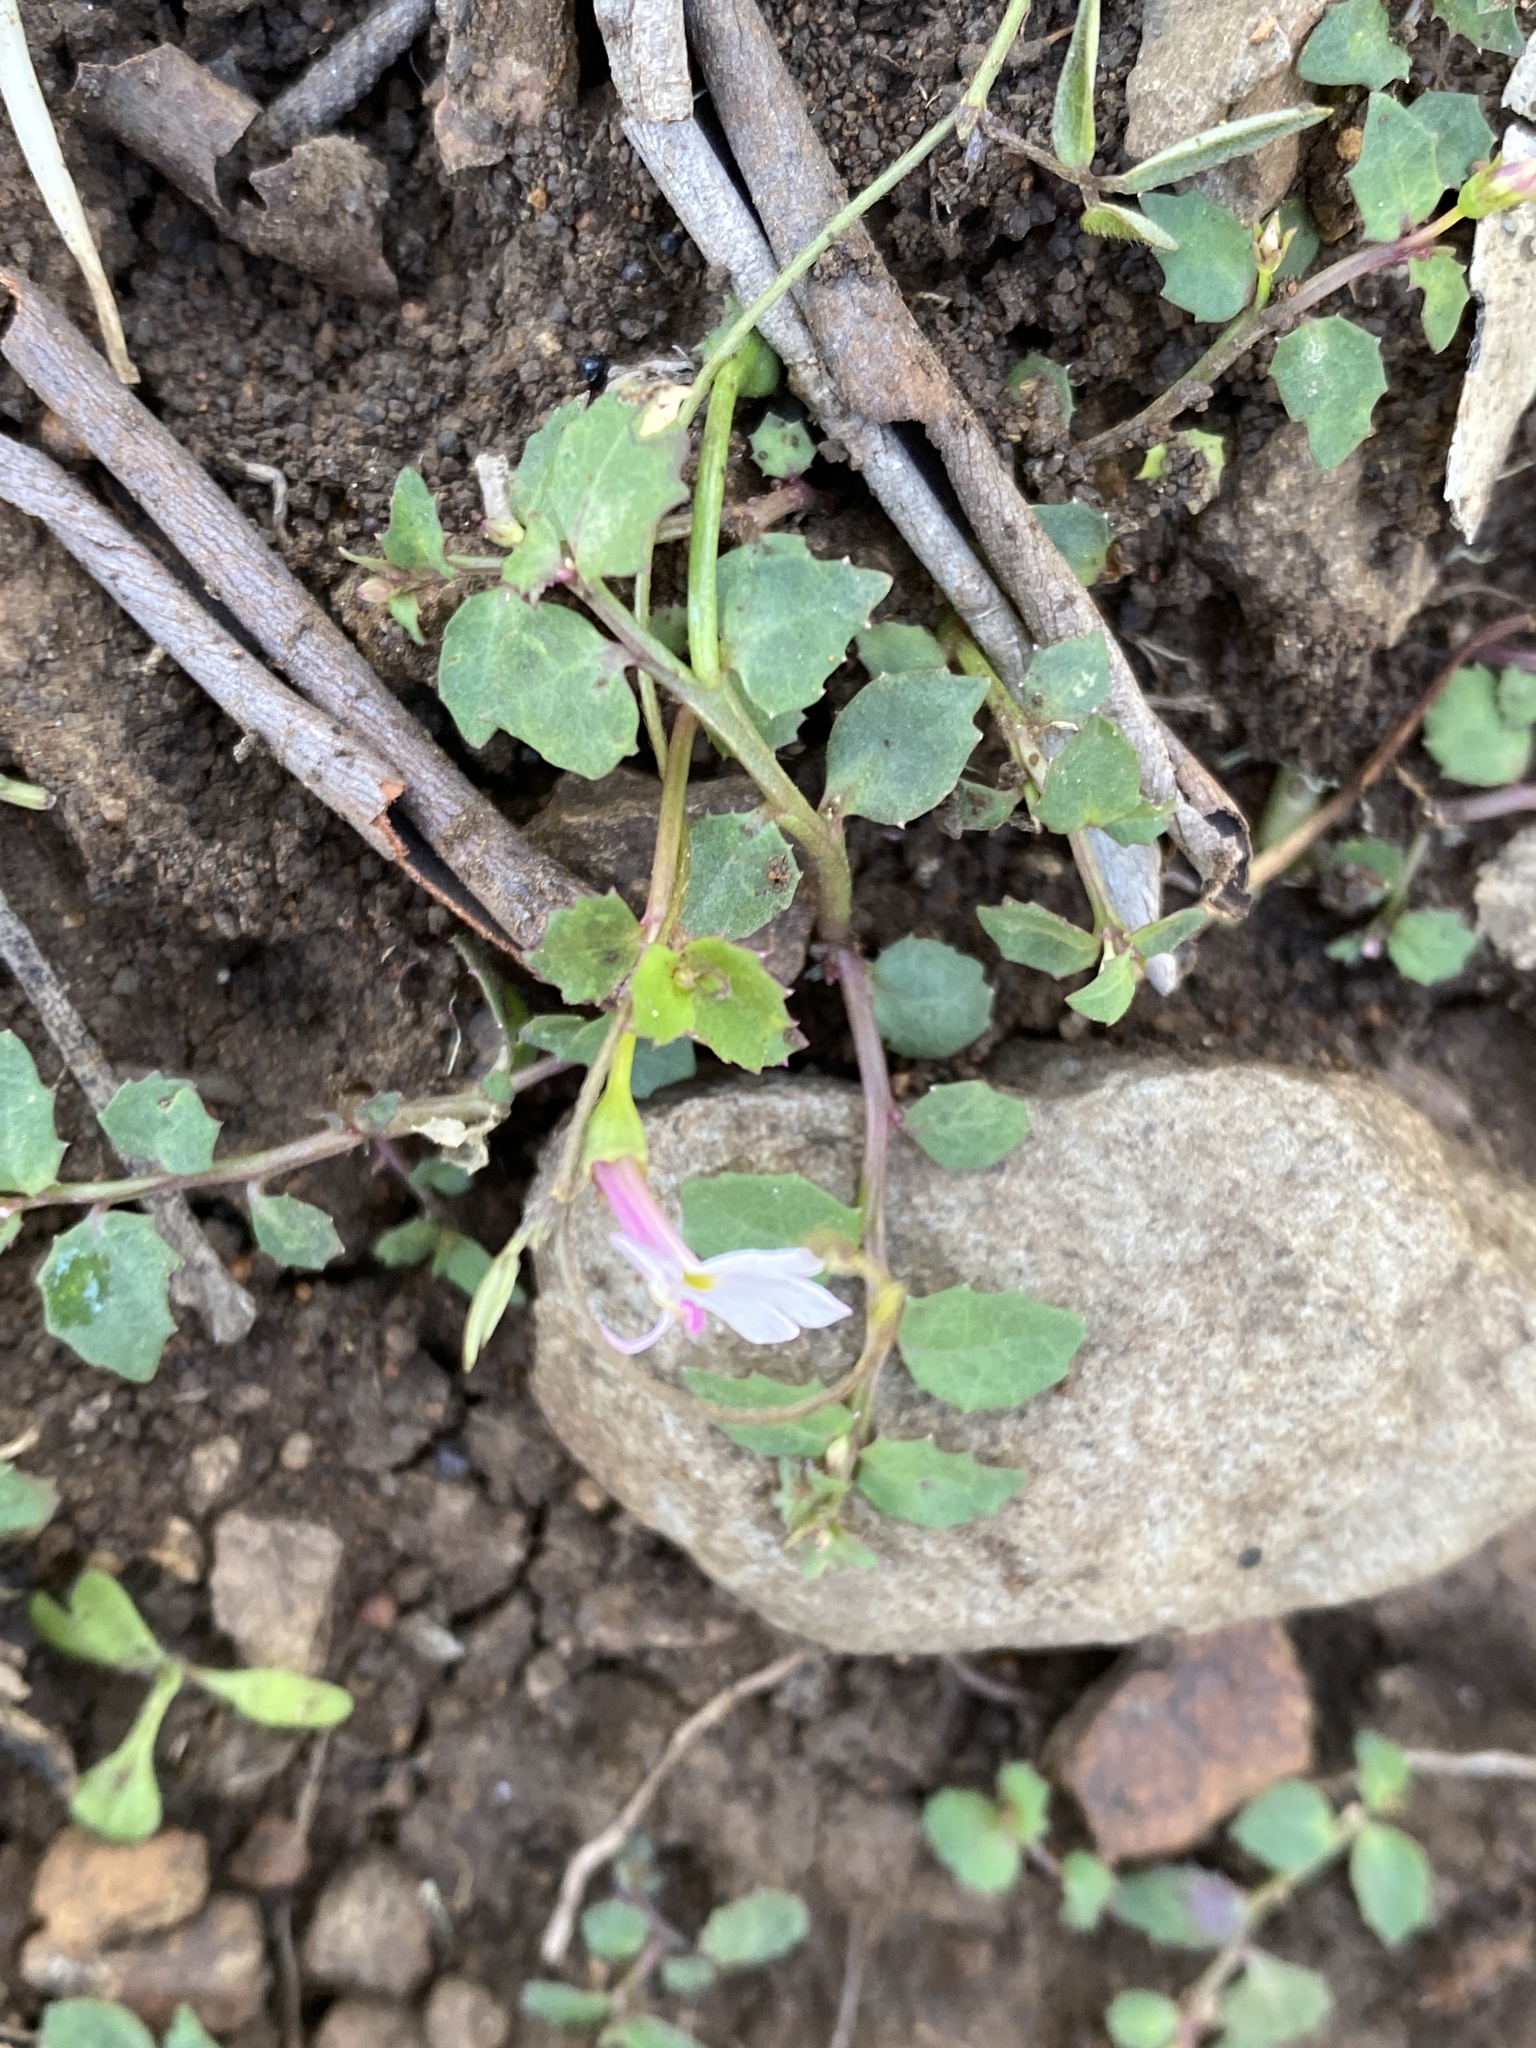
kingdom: Plantae
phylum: Tracheophyta
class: Magnoliopsida
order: Asterales
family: Campanulaceae
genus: Lobelia
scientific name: Lobelia purpurascens
